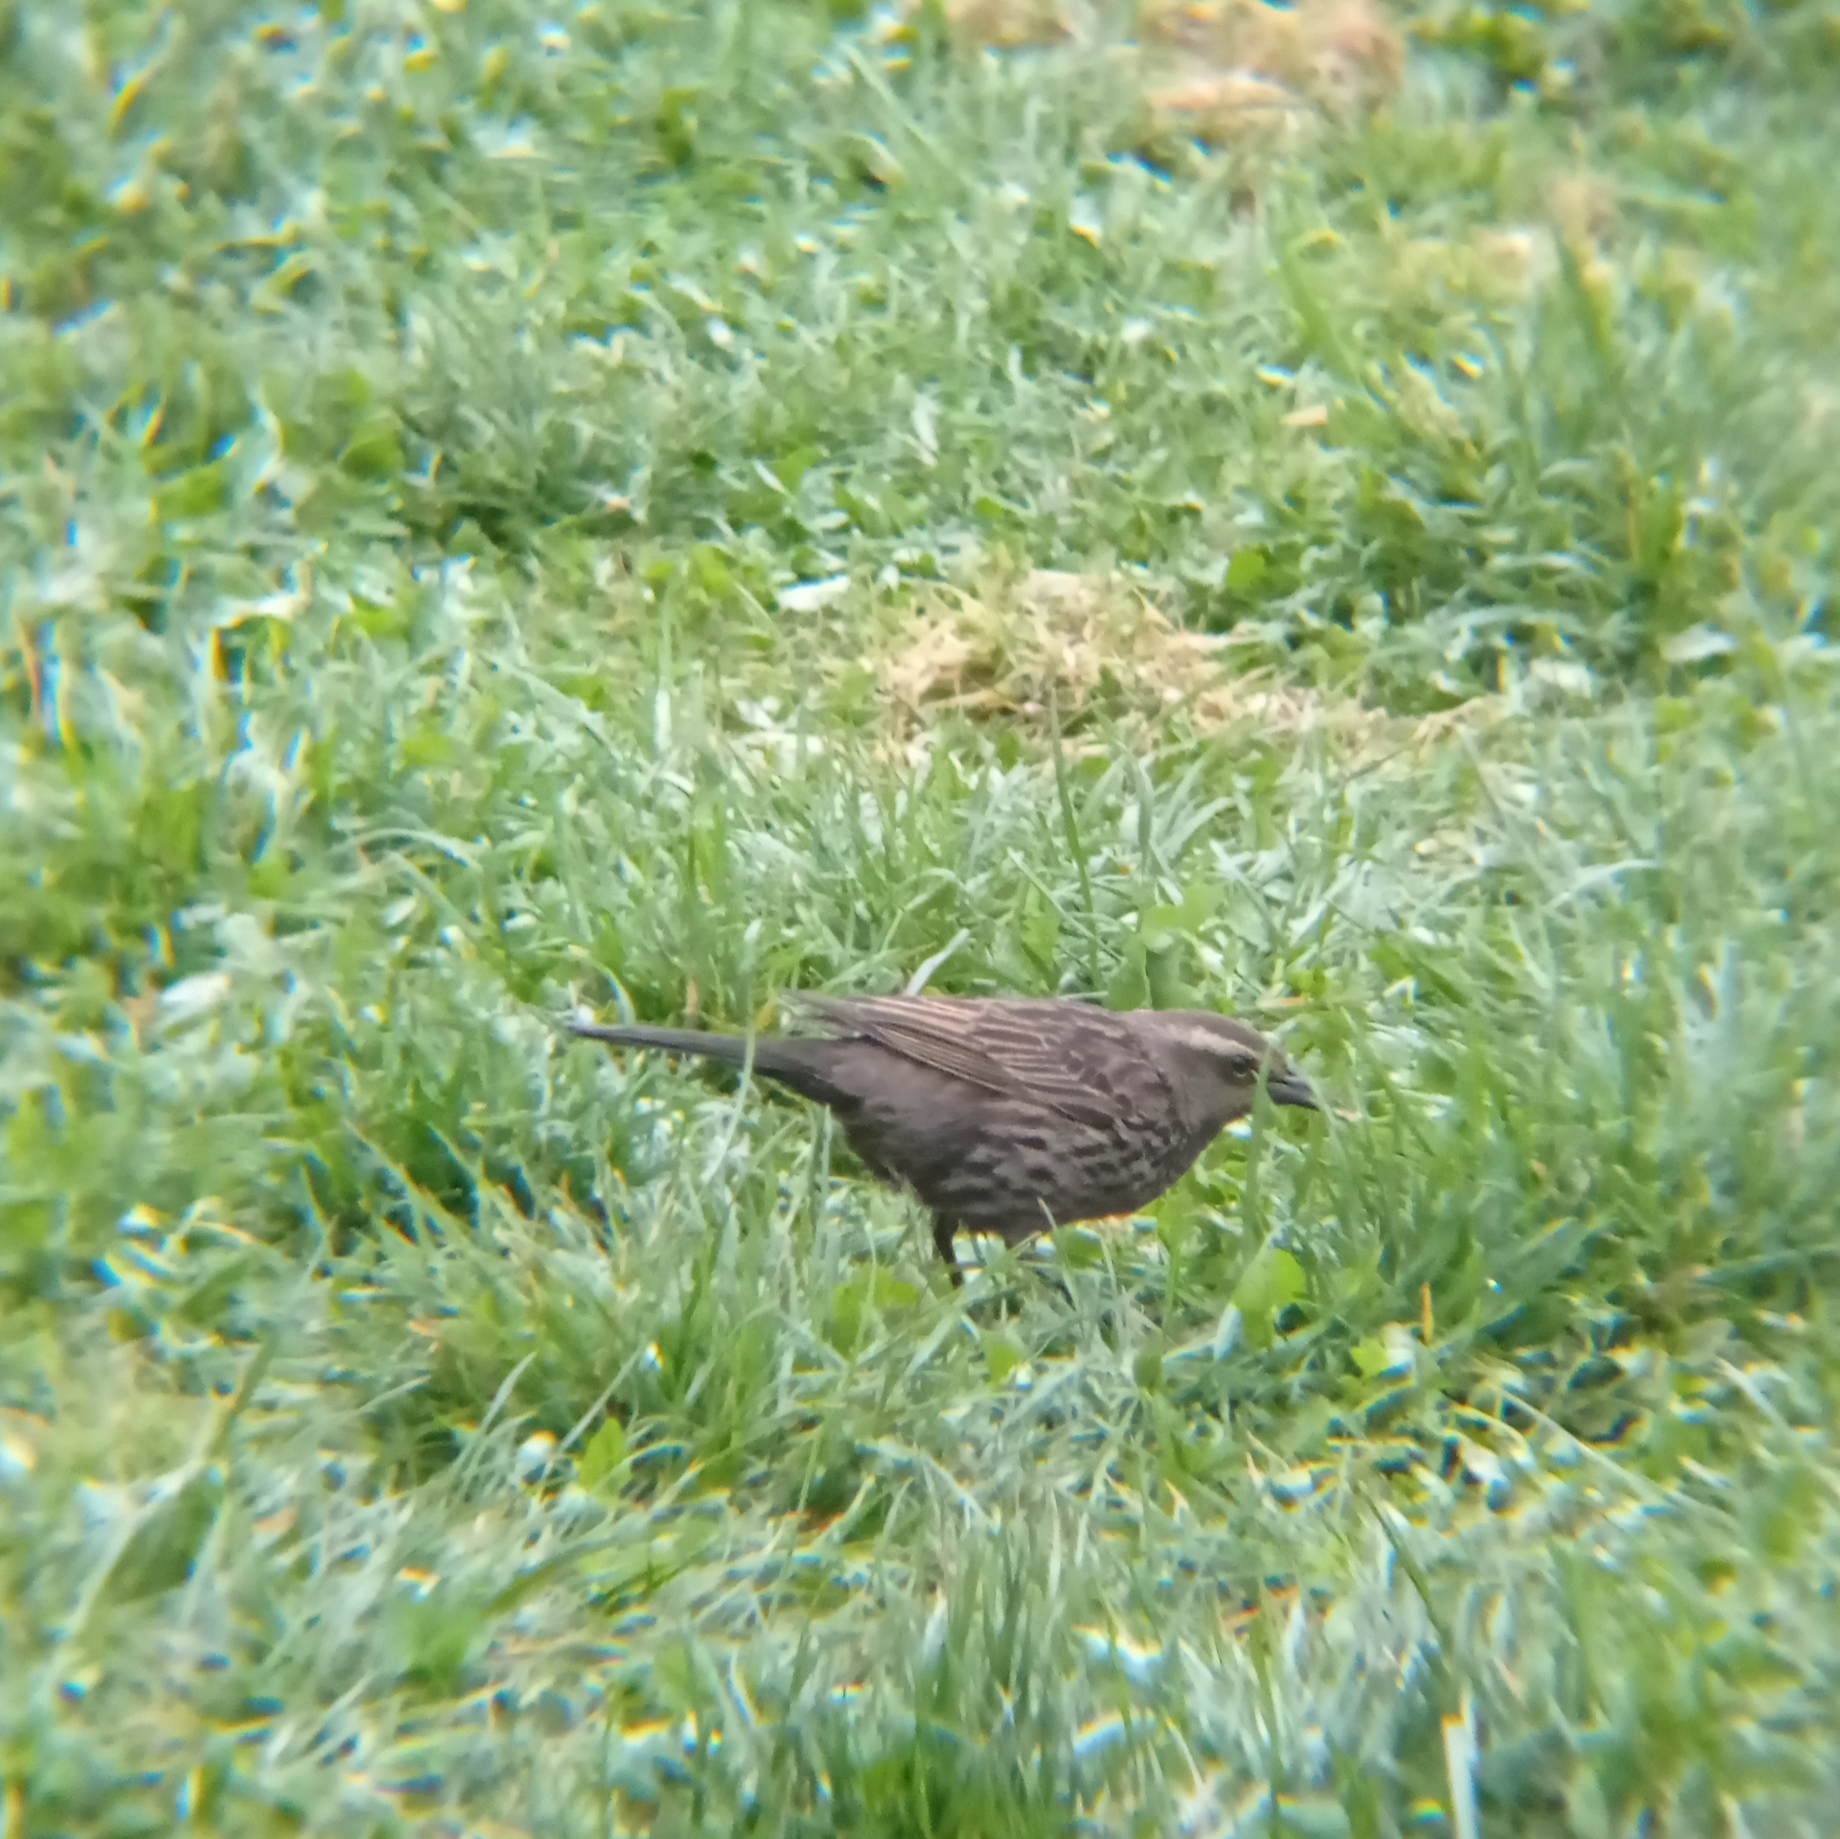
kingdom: Animalia
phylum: Chordata
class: Aves
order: Passeriformes
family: Icteridae
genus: Agelasticus
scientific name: Agelasticus thilius
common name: Yellow-winged blackbird
